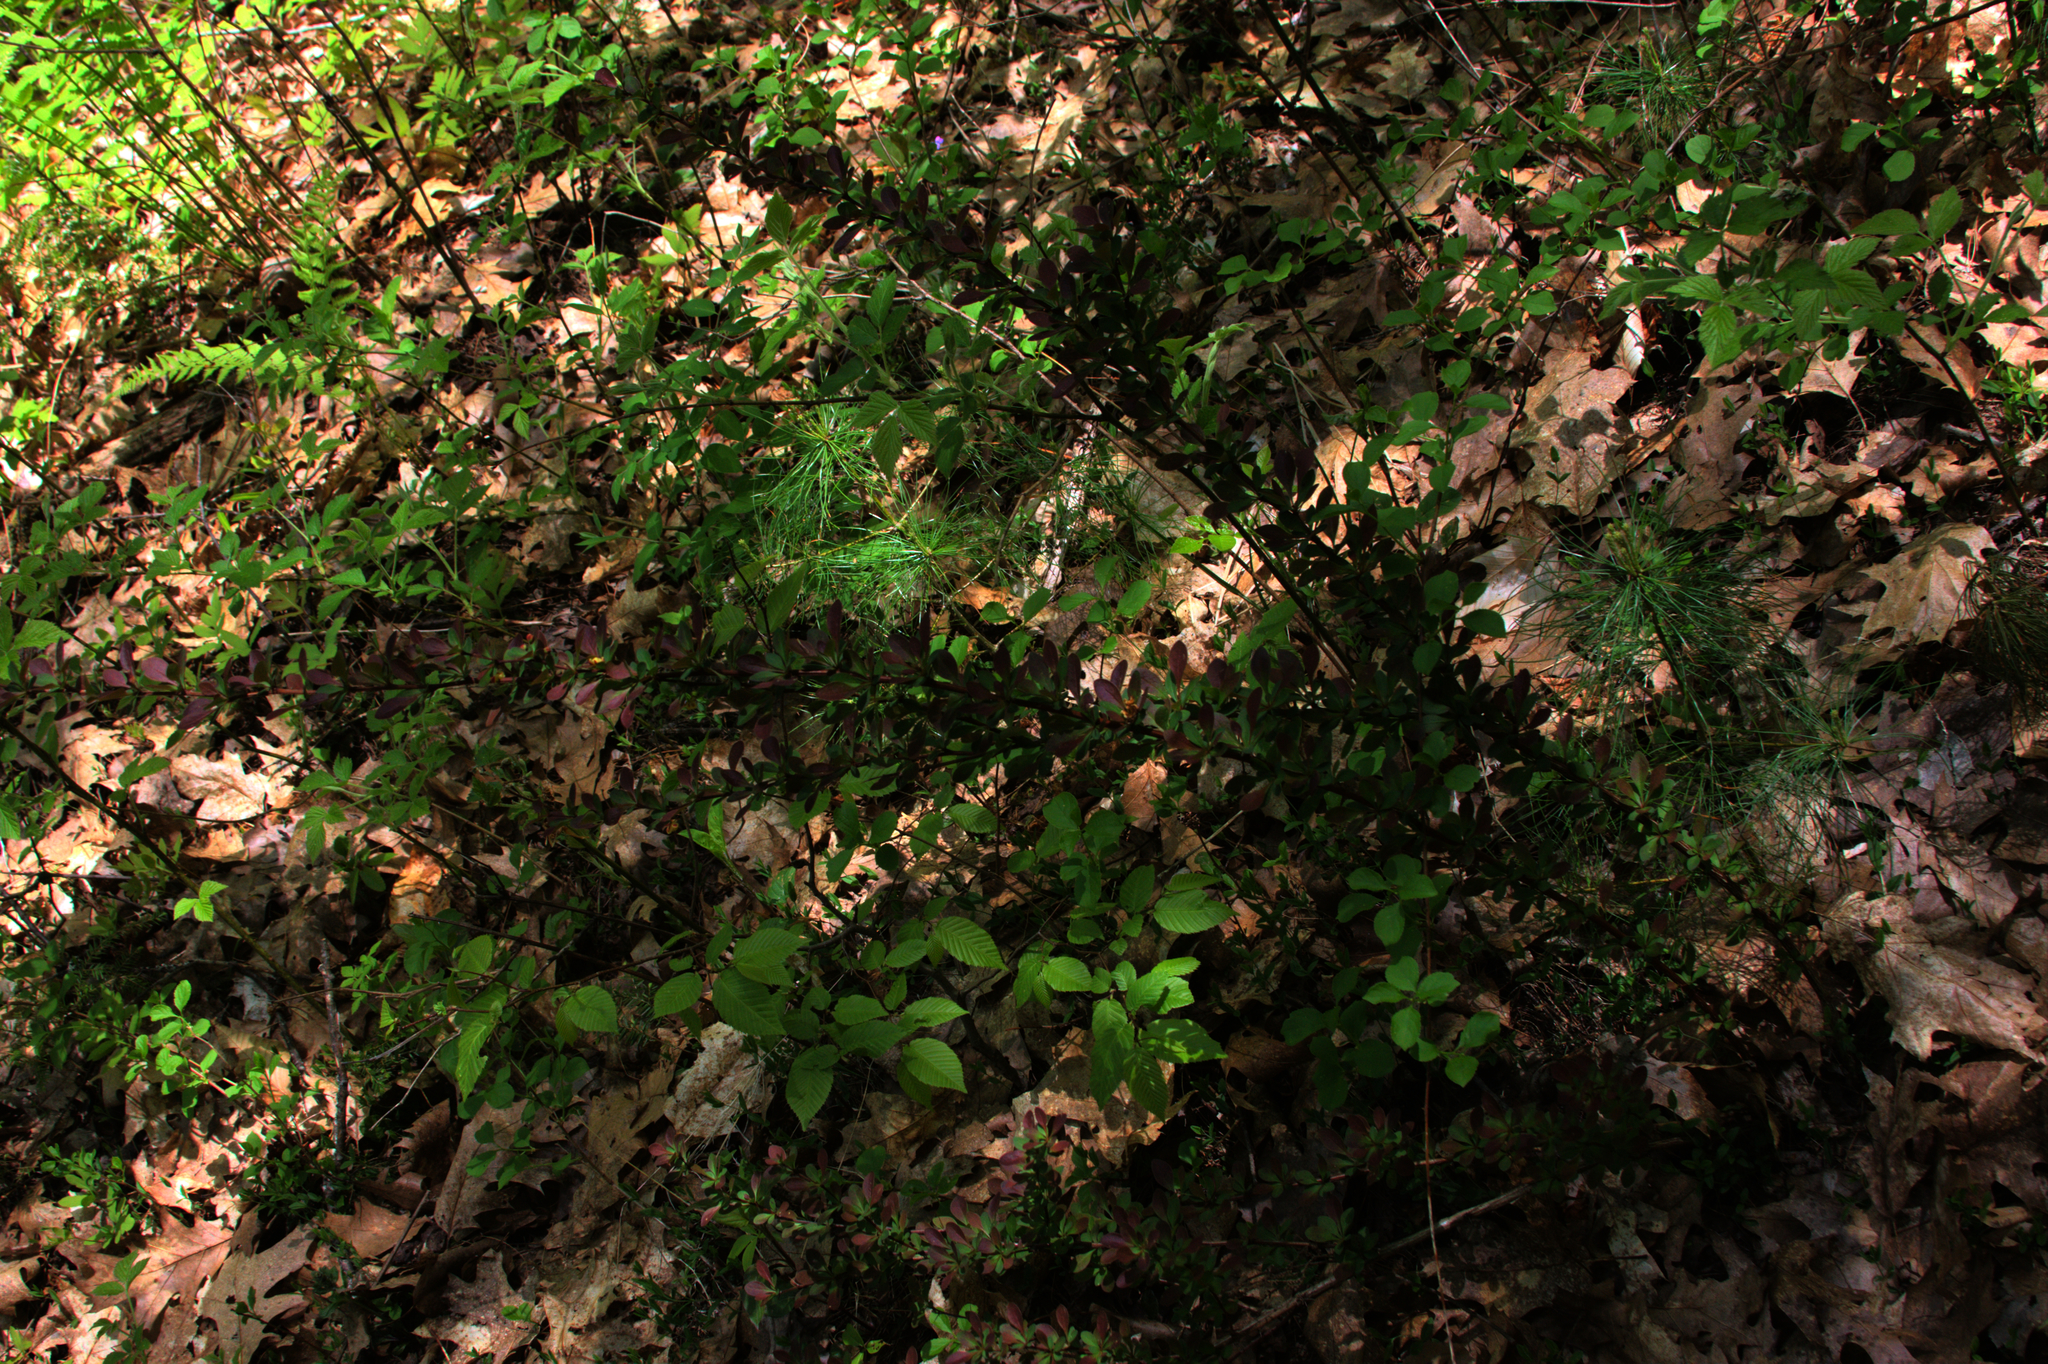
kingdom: Plantae
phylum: Tracheophyta
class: Magnoliopsida
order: Fagales
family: Fagaceae
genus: Fagus
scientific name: Fagus grandifolia
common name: American beech
